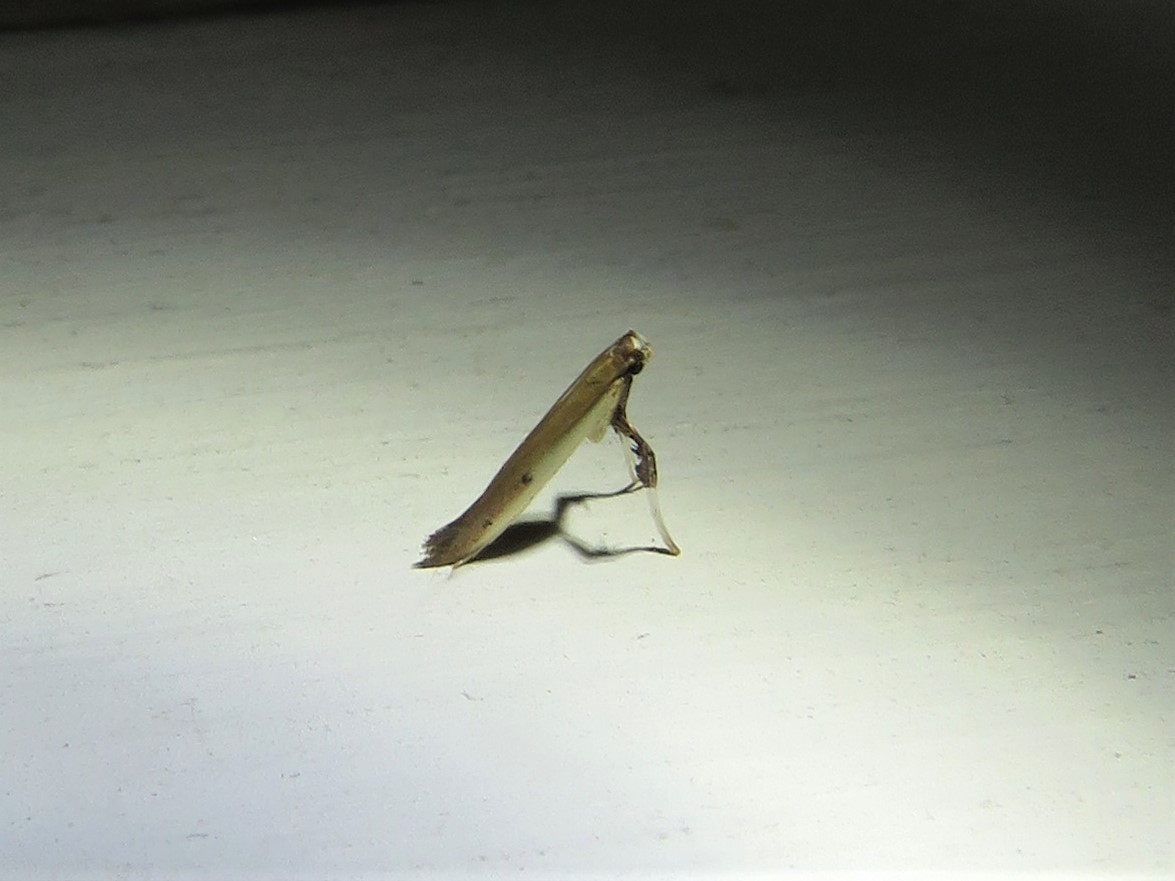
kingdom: Animalia
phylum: Arthropoda
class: Insecta
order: Lepidoptera
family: Gracillariidae
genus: Caloptilia
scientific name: Caloptilia violacella
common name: Tick-trefoil caloptilia moth
